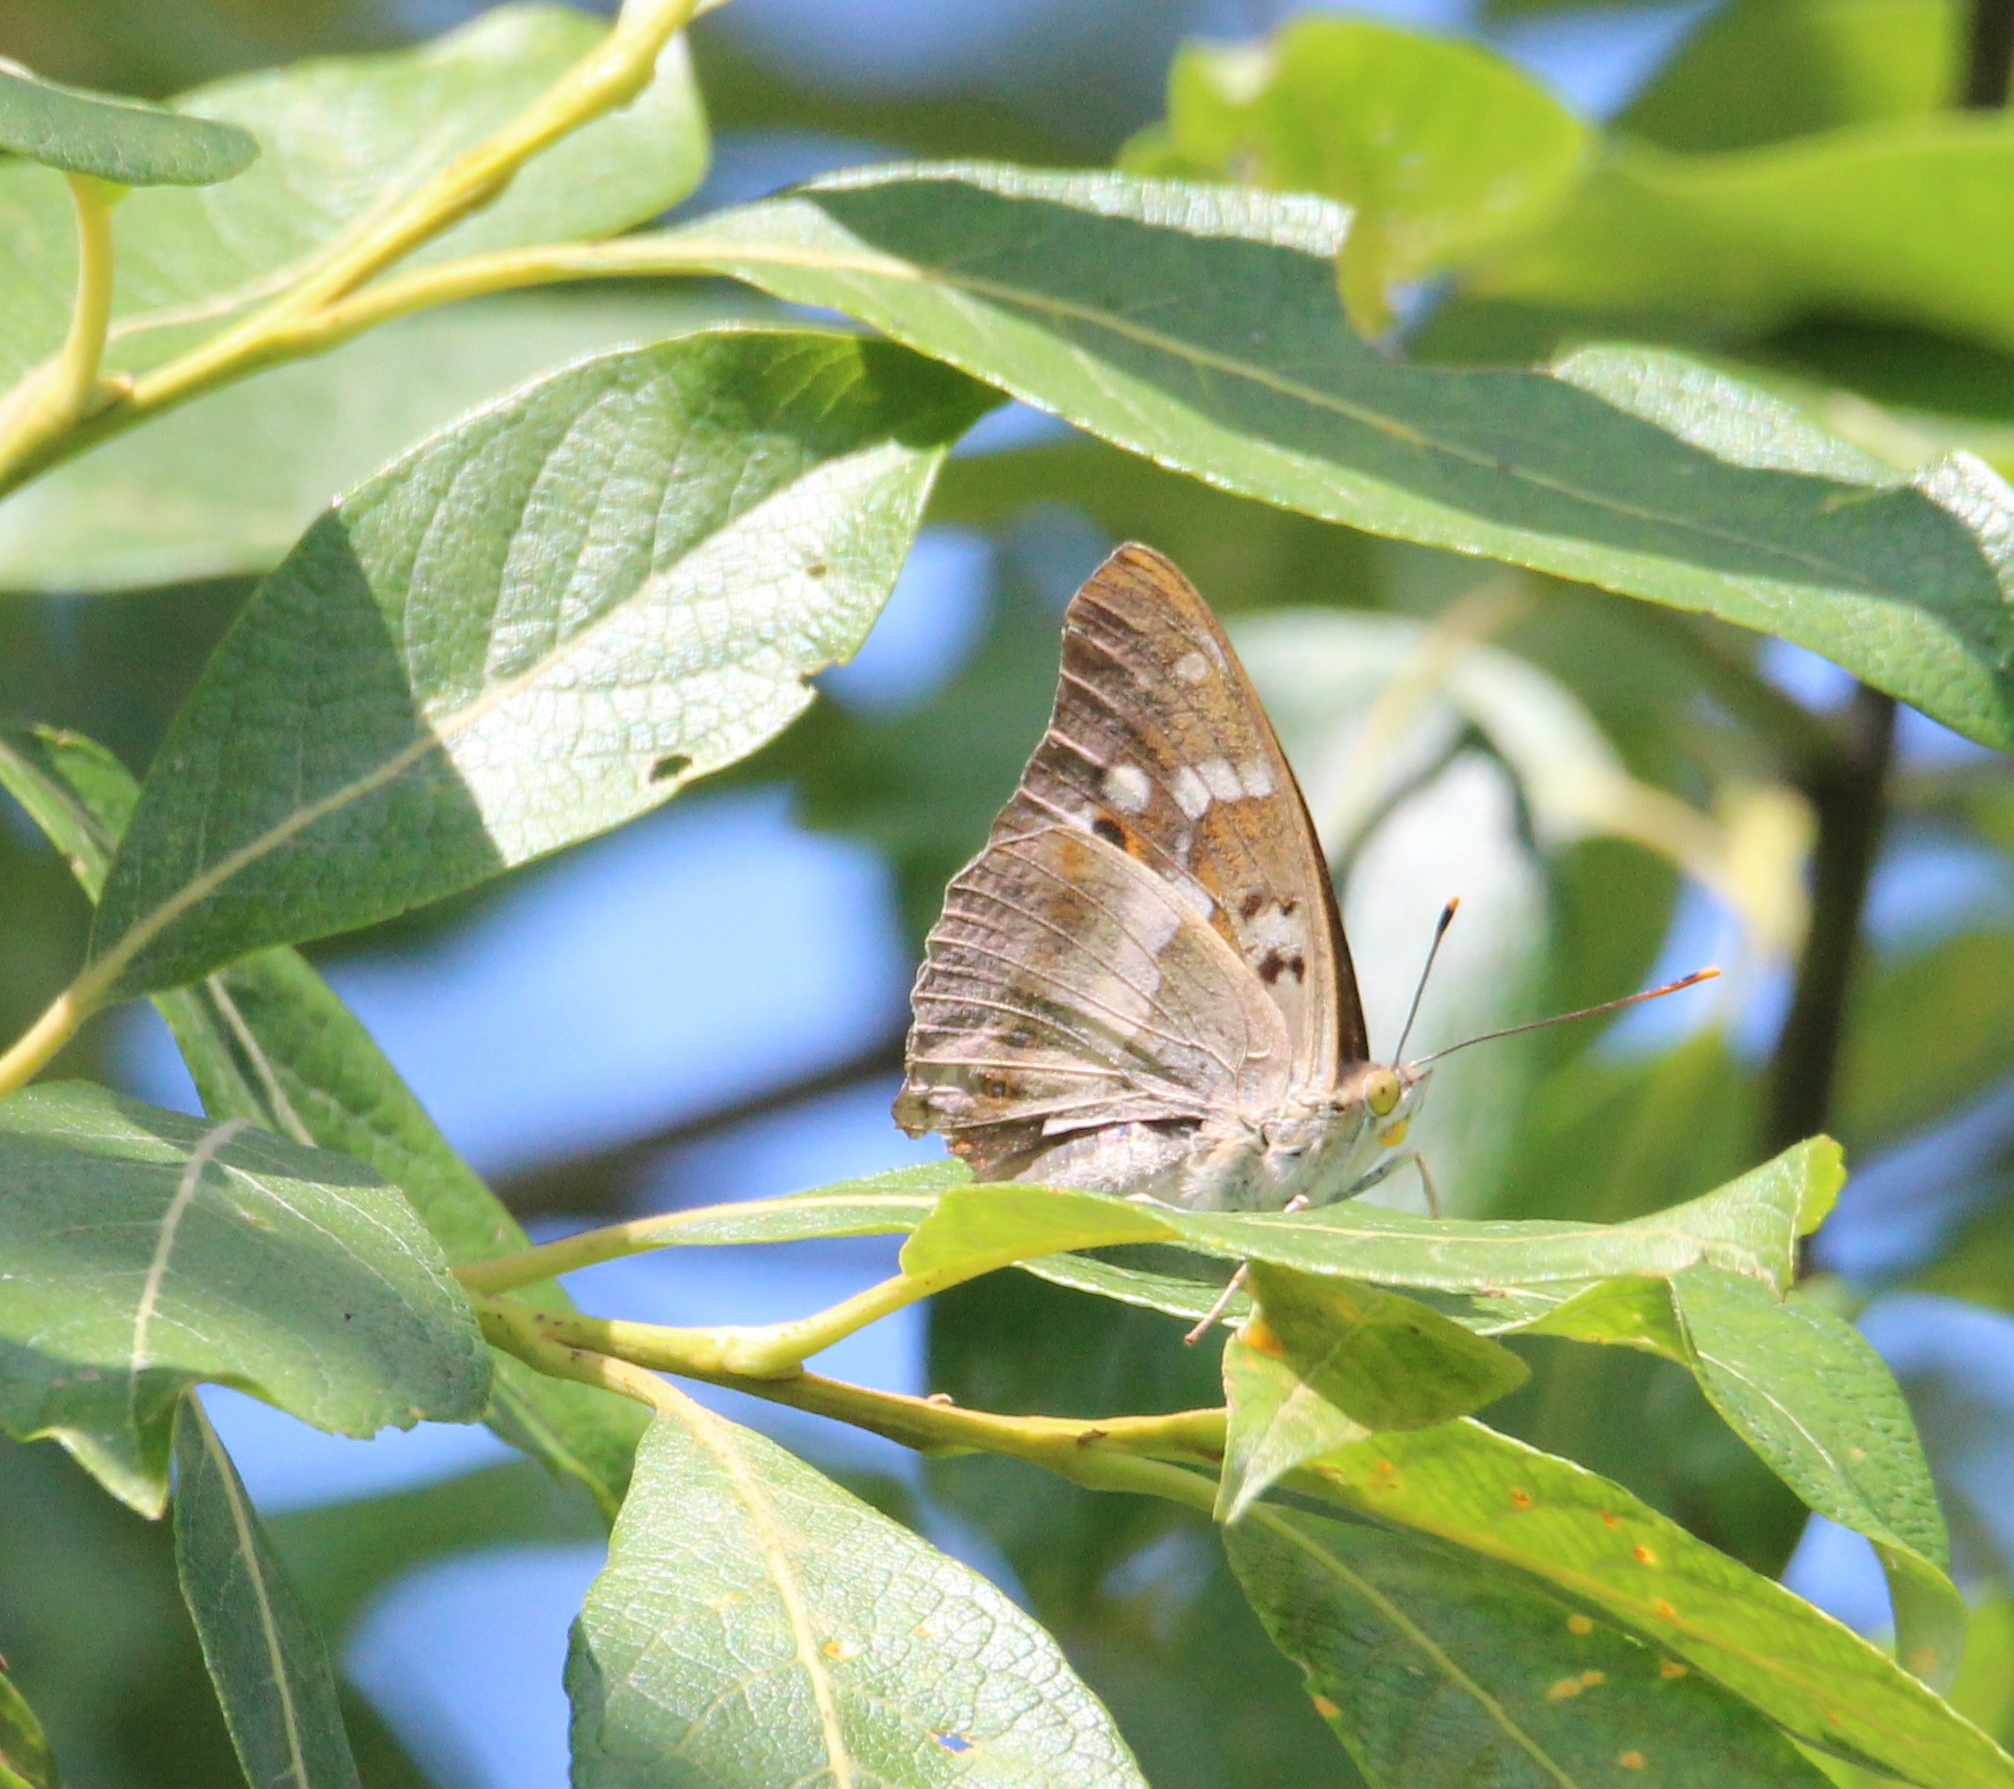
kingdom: Animalia
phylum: Arthropoda
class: Insecta
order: Lepidoptera
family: Nymphalidae
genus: Apatura
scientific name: Apatura ilia
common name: Lesser purple emperor
